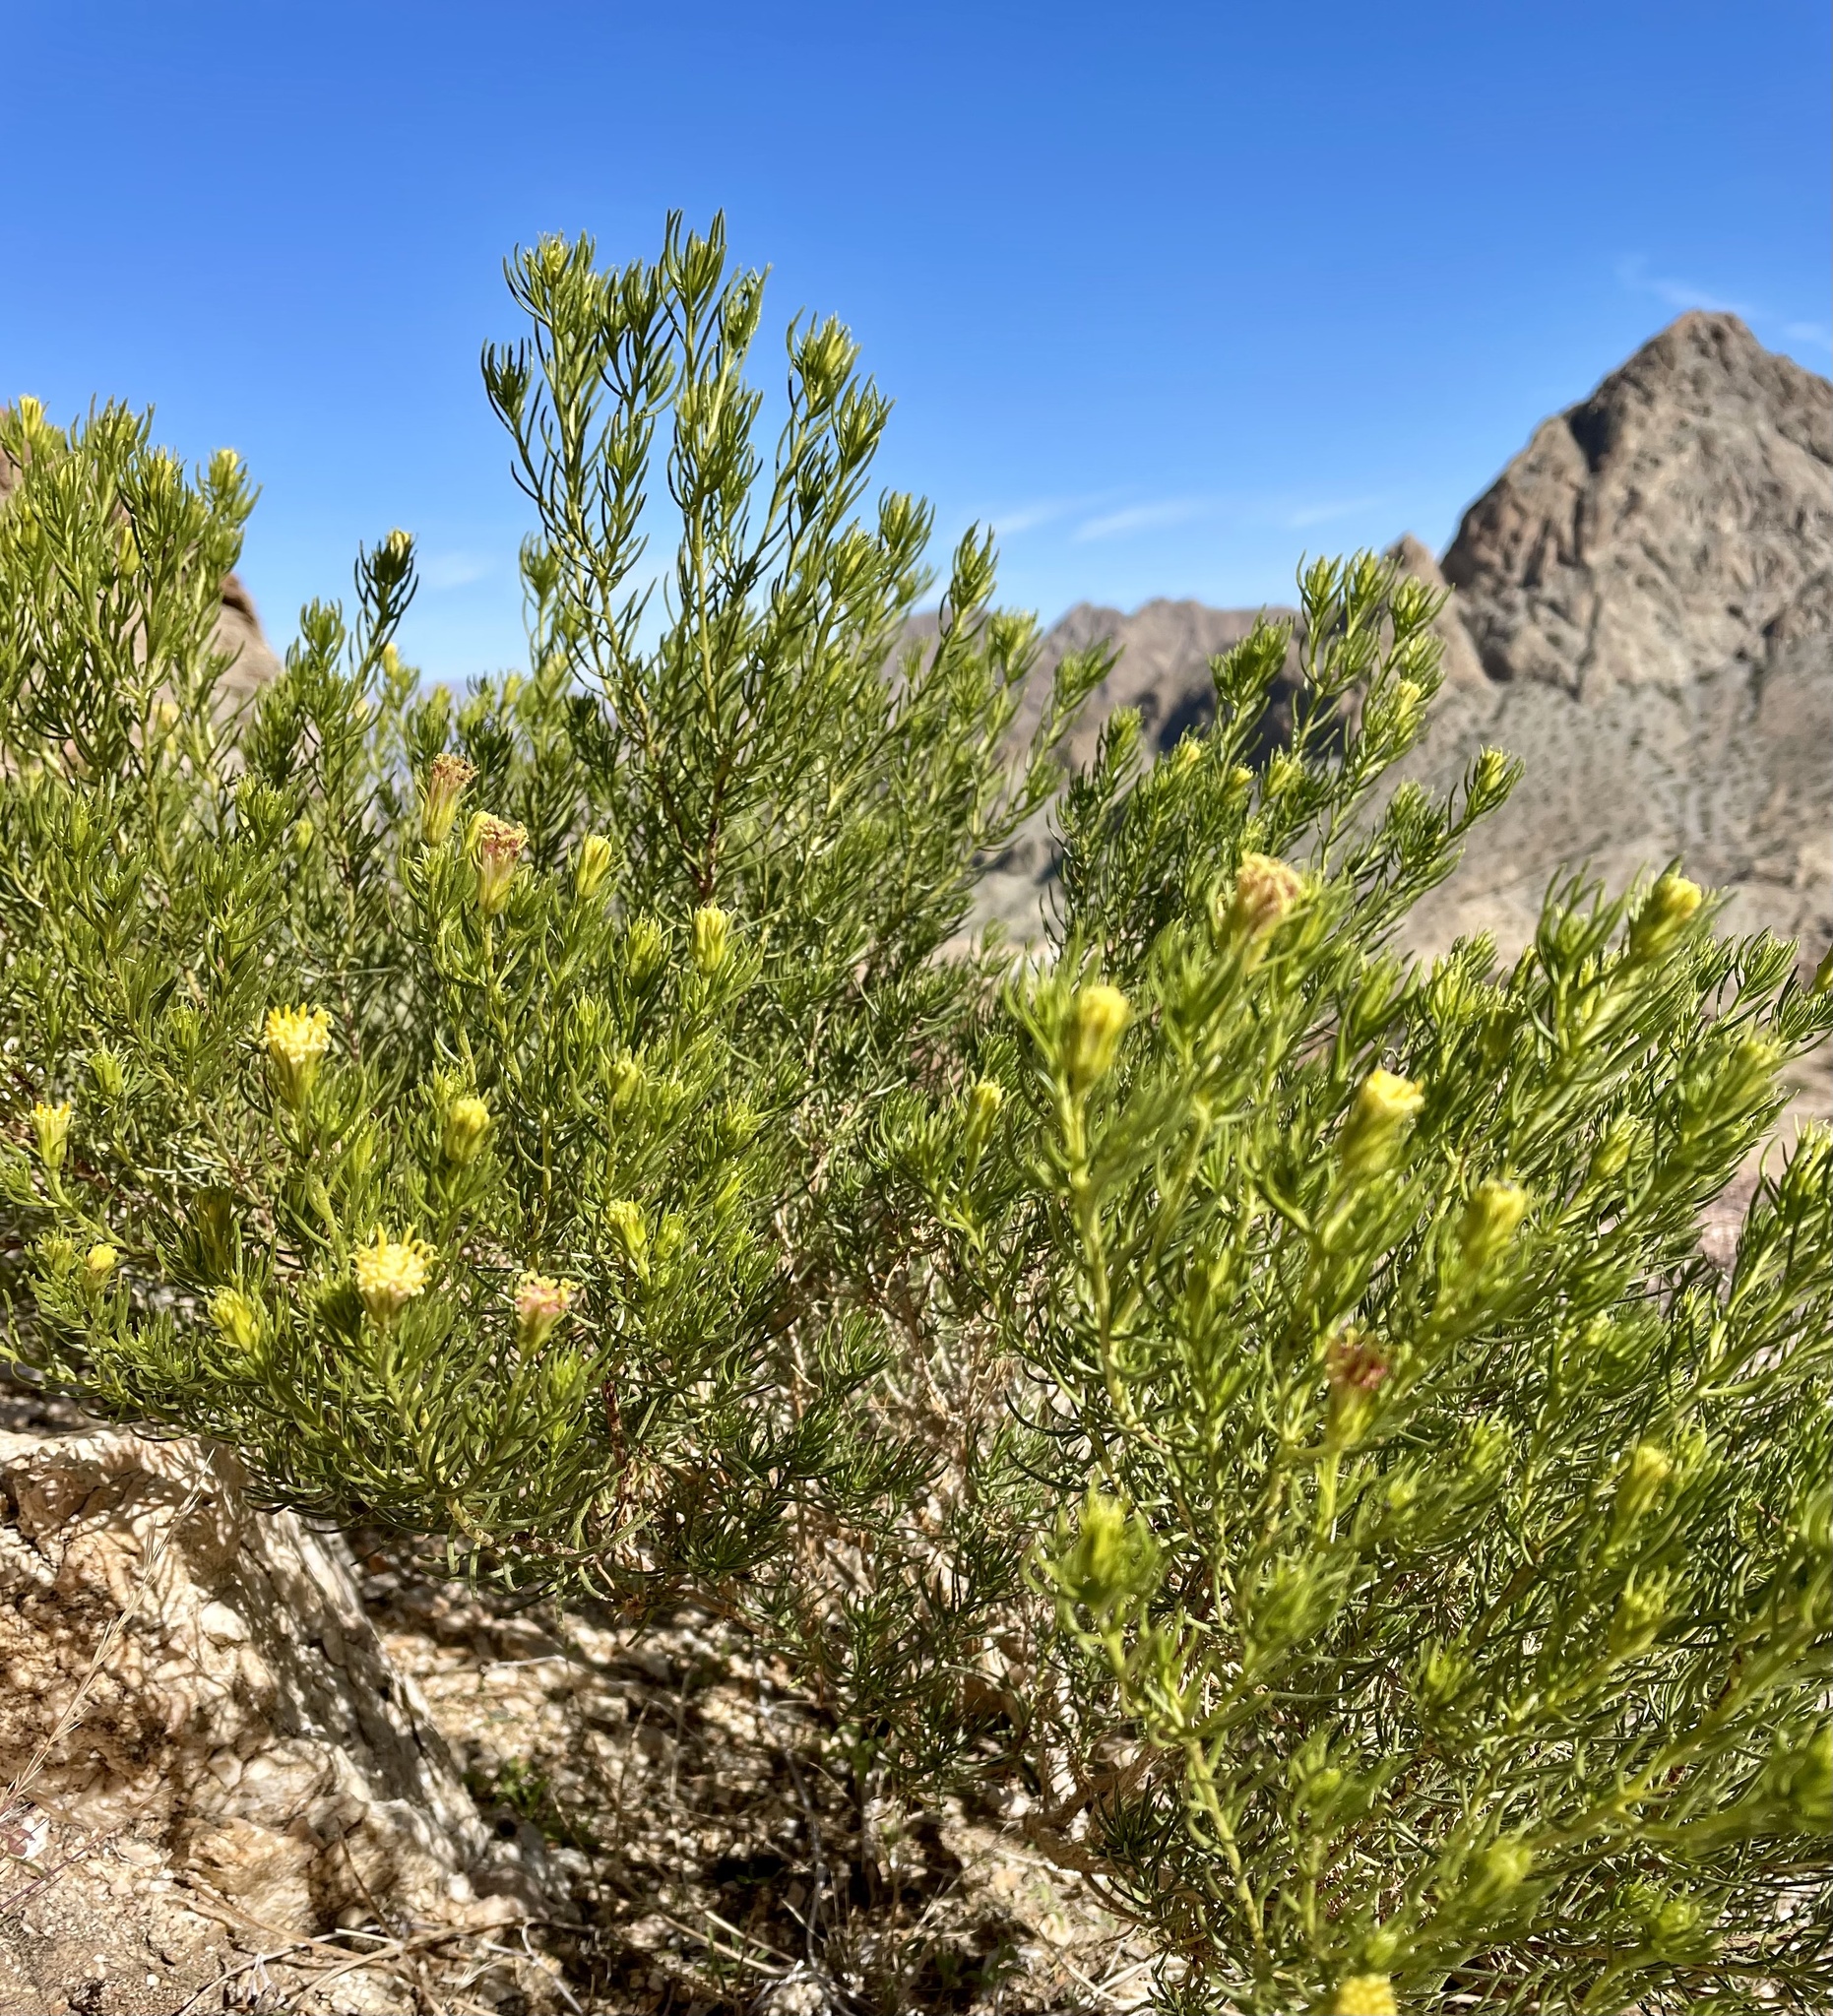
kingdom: Plantae
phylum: Tracheophyta
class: Magnoliopsida
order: Asterales
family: Asteraceae
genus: Peucephyllum
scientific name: Peucephyllum schottii
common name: Pygmy-cedar
